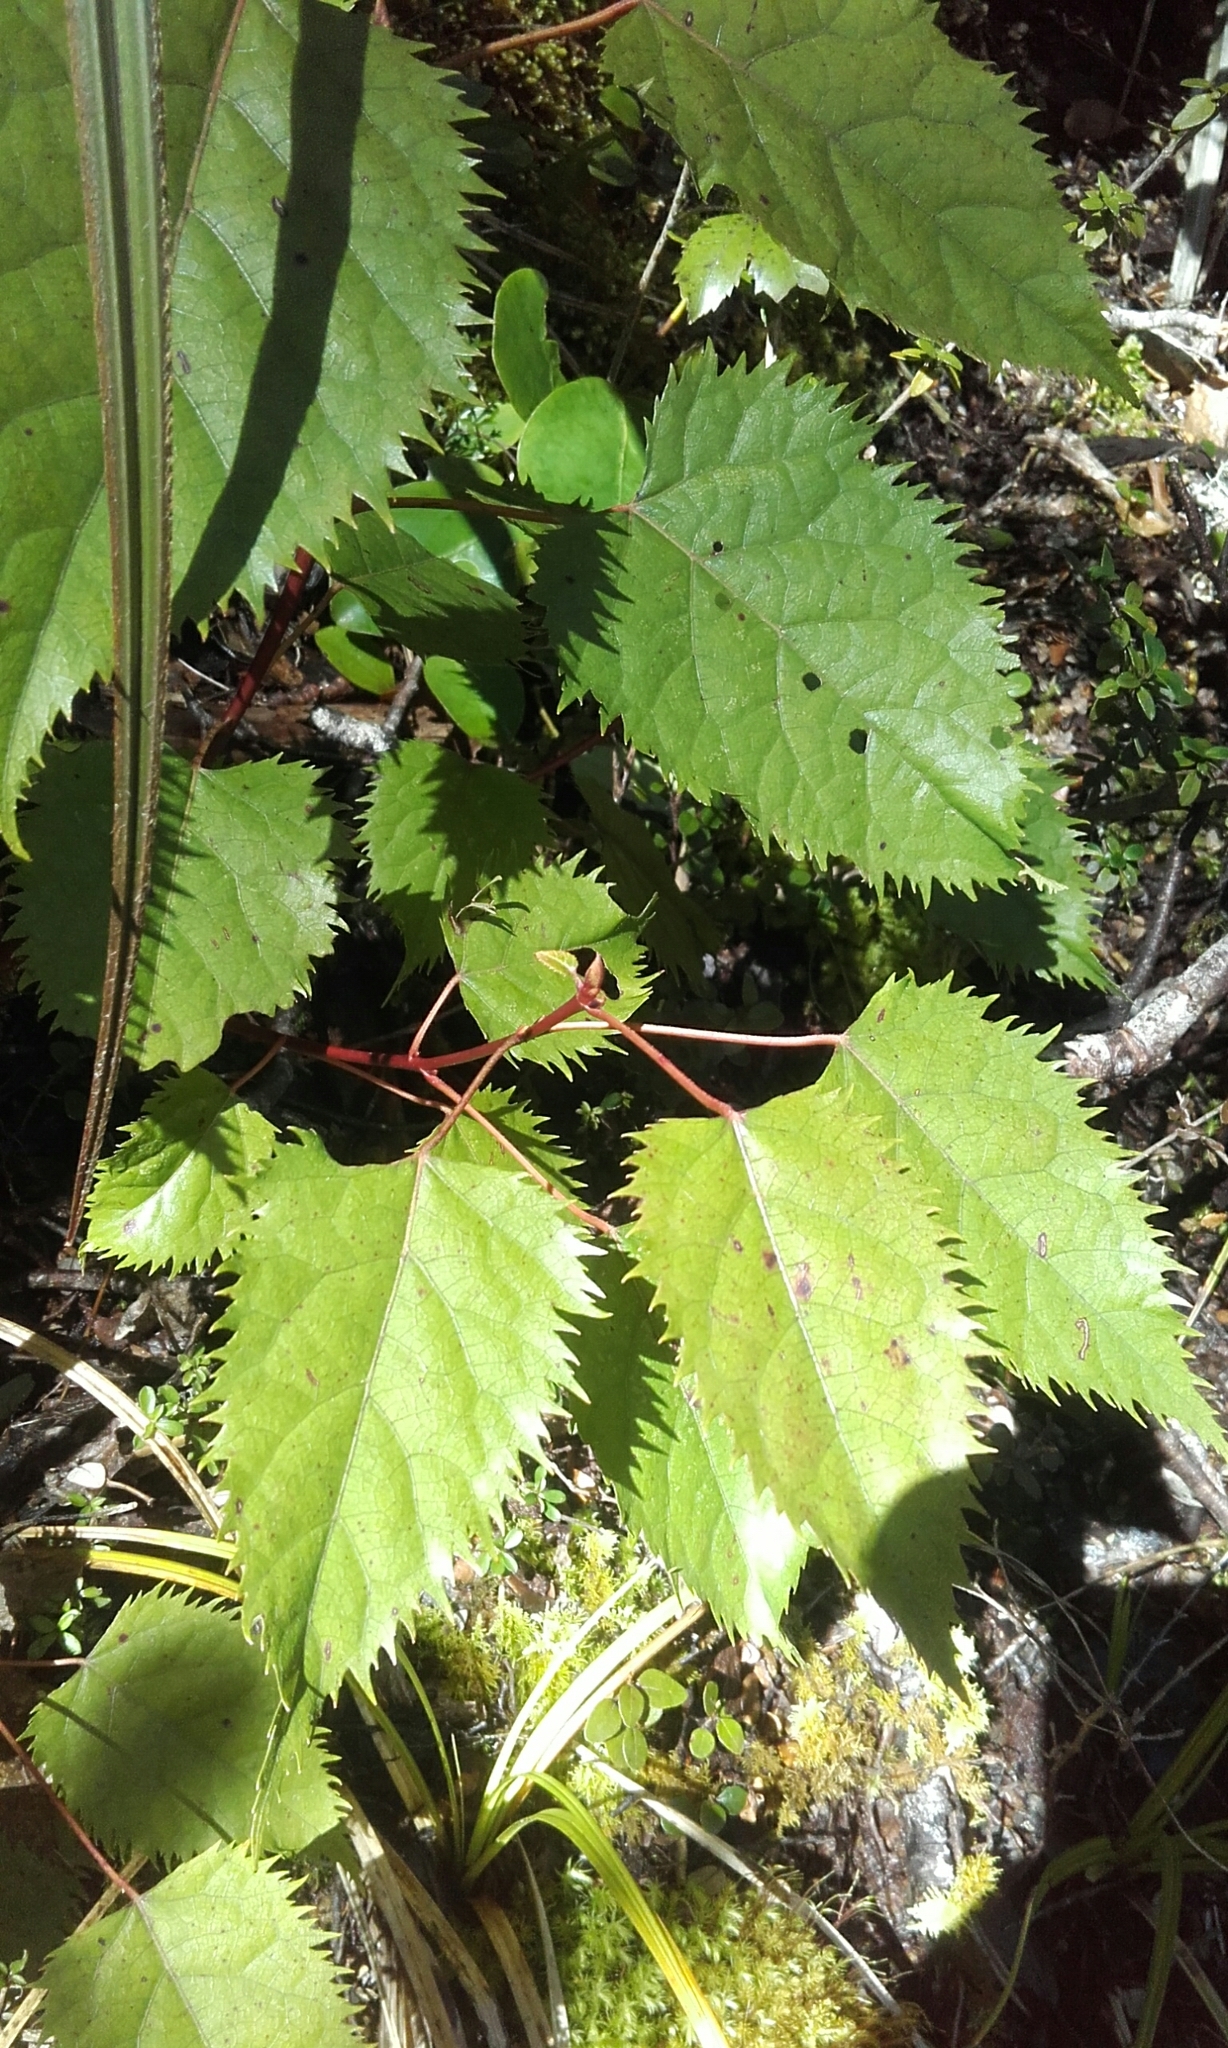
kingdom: Plantae
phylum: Tracheophyta
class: Magnoliopsida
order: Oxalidales
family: Elaeocarpaceae
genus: Aristotelia
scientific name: Aristotelia serrata
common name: New zealand wineberry
